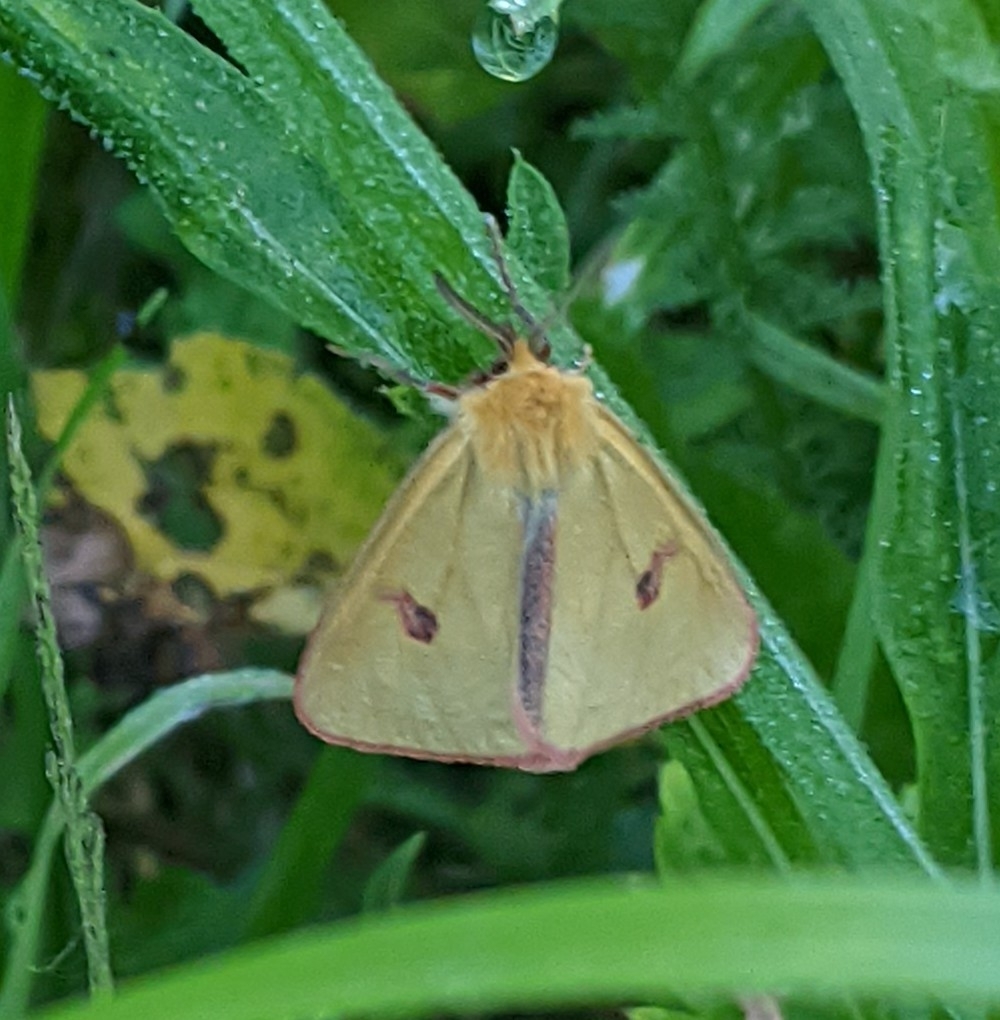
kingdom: Animalia
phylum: Arthropoda
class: Insecta
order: Lepidoptera
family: Erebidae
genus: Diacrisia
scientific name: Diacrisia sannio
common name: Clouded buff
